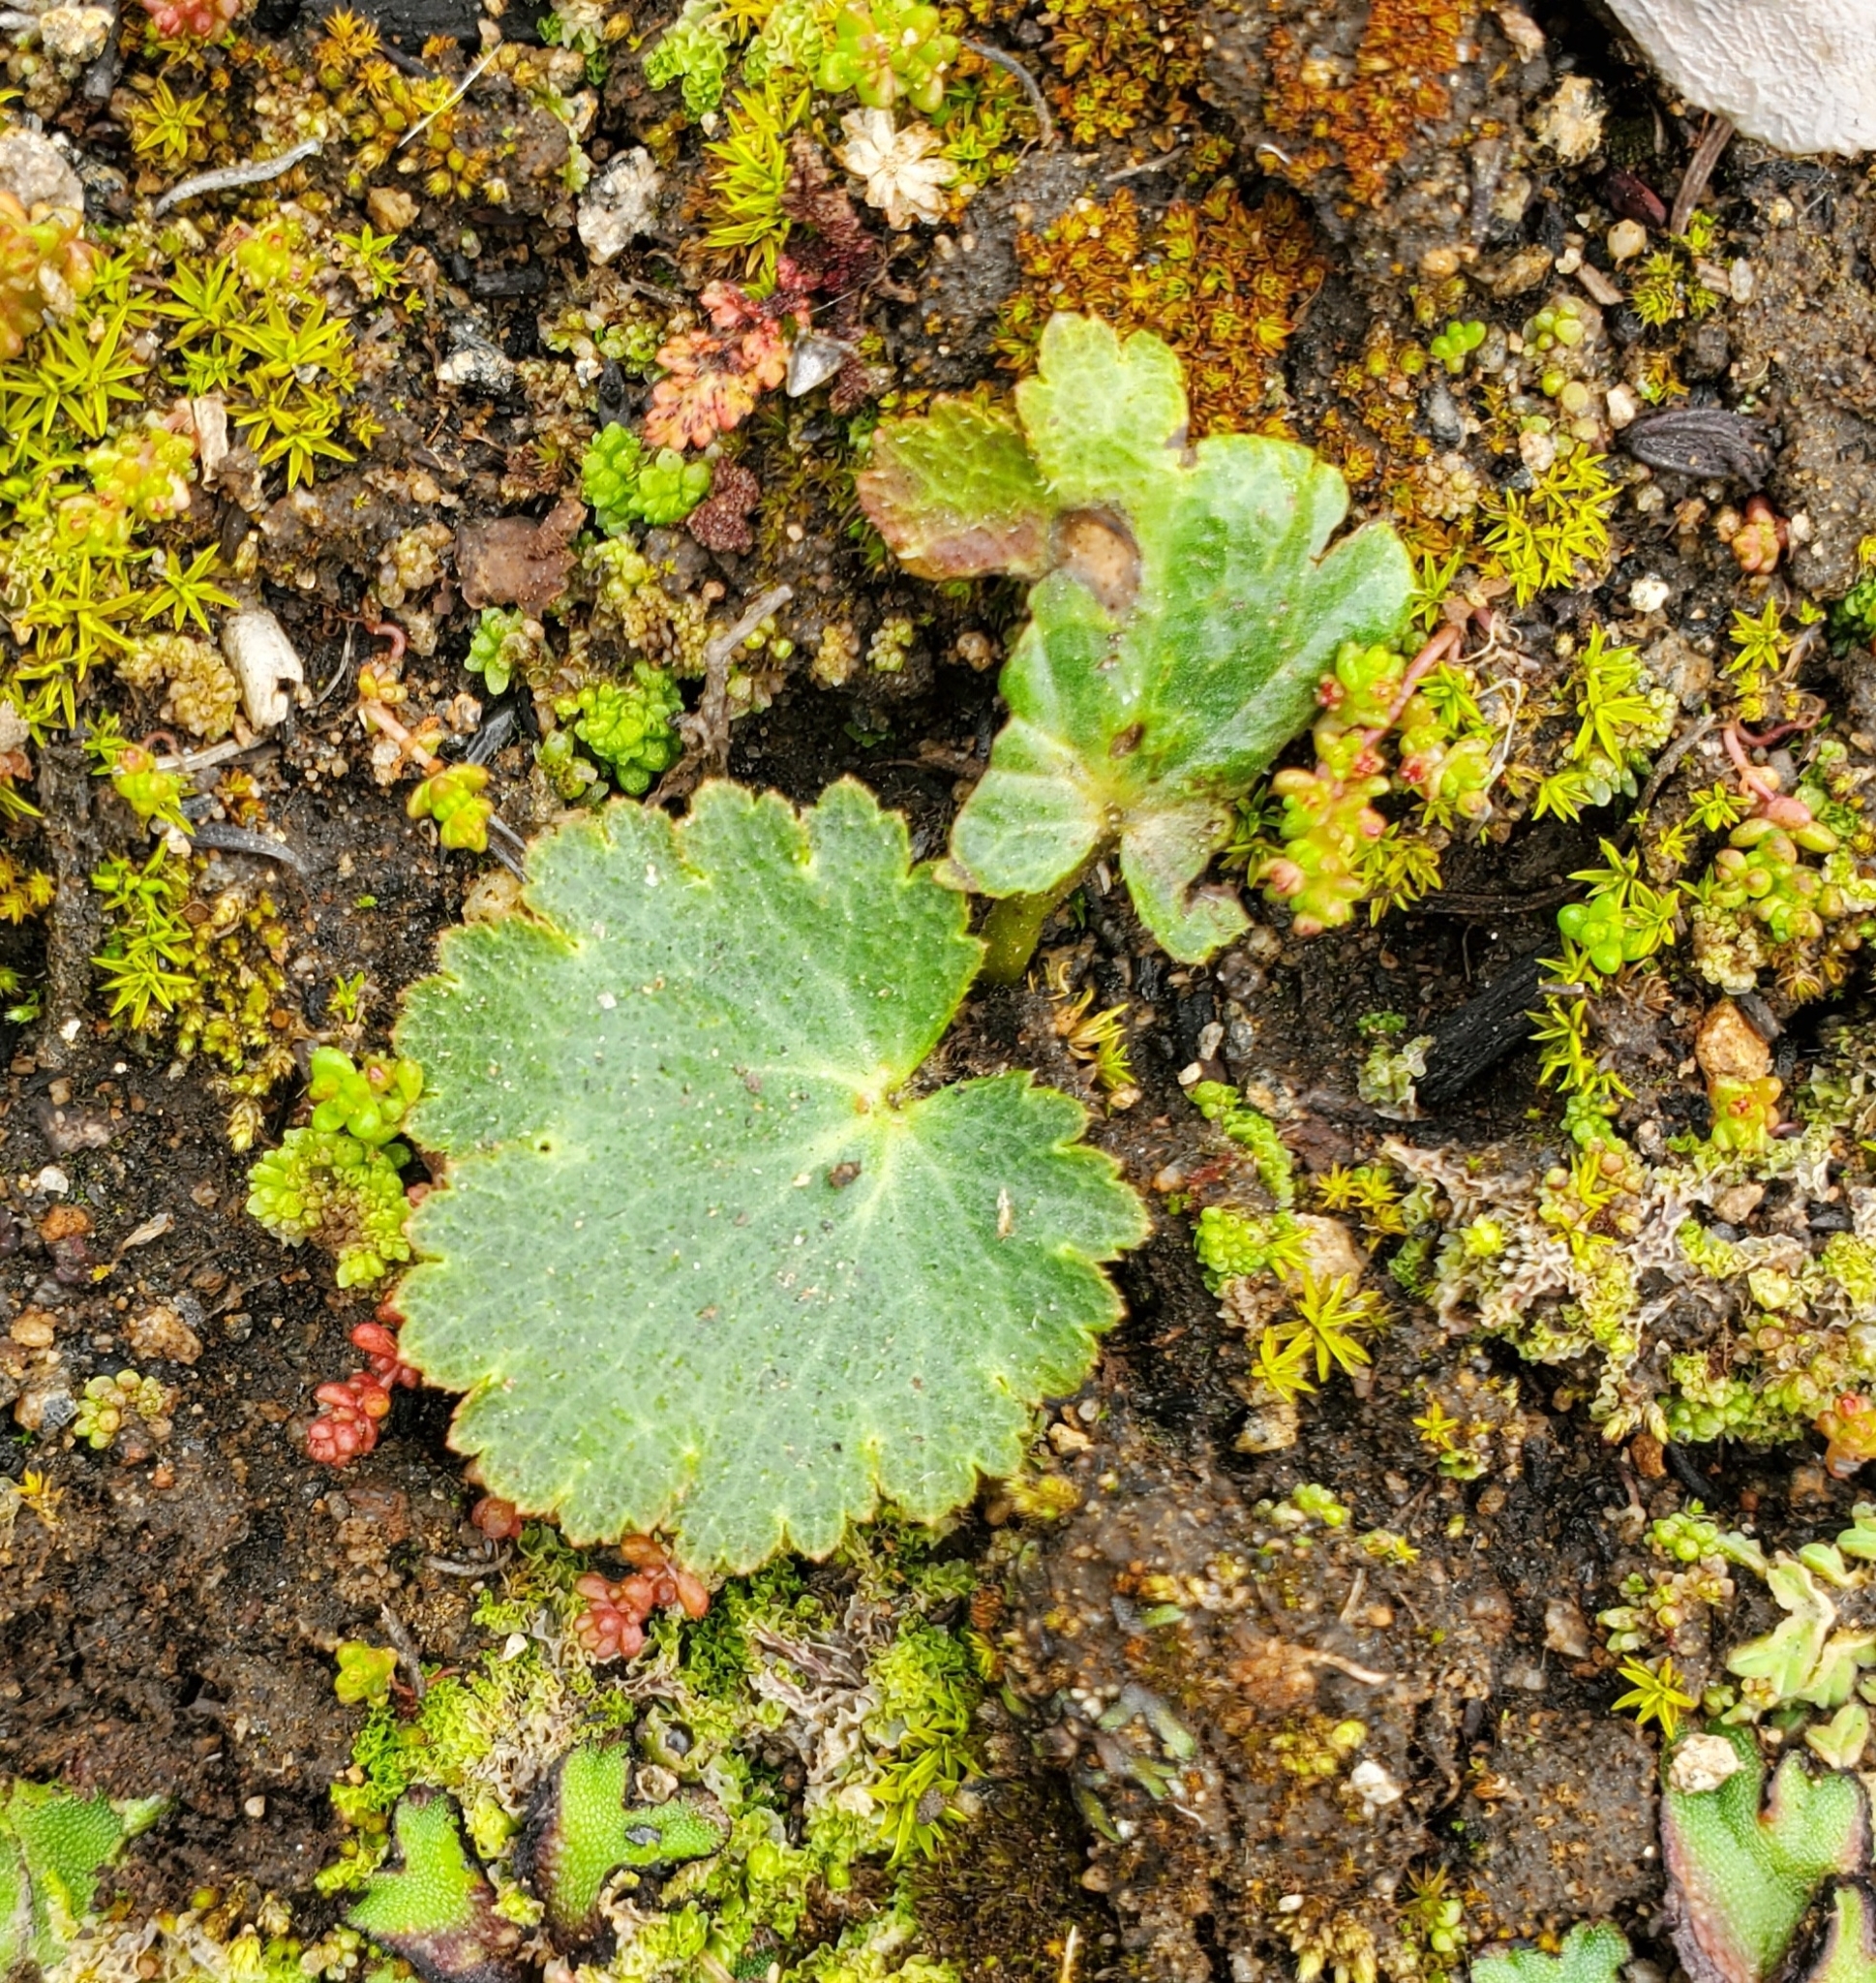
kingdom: Plantae
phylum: Tracheophyta
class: Magnoliopsida
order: Saxifragales
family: Saxifragaceae
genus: Jepsonia
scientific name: Jepsonia parryi
